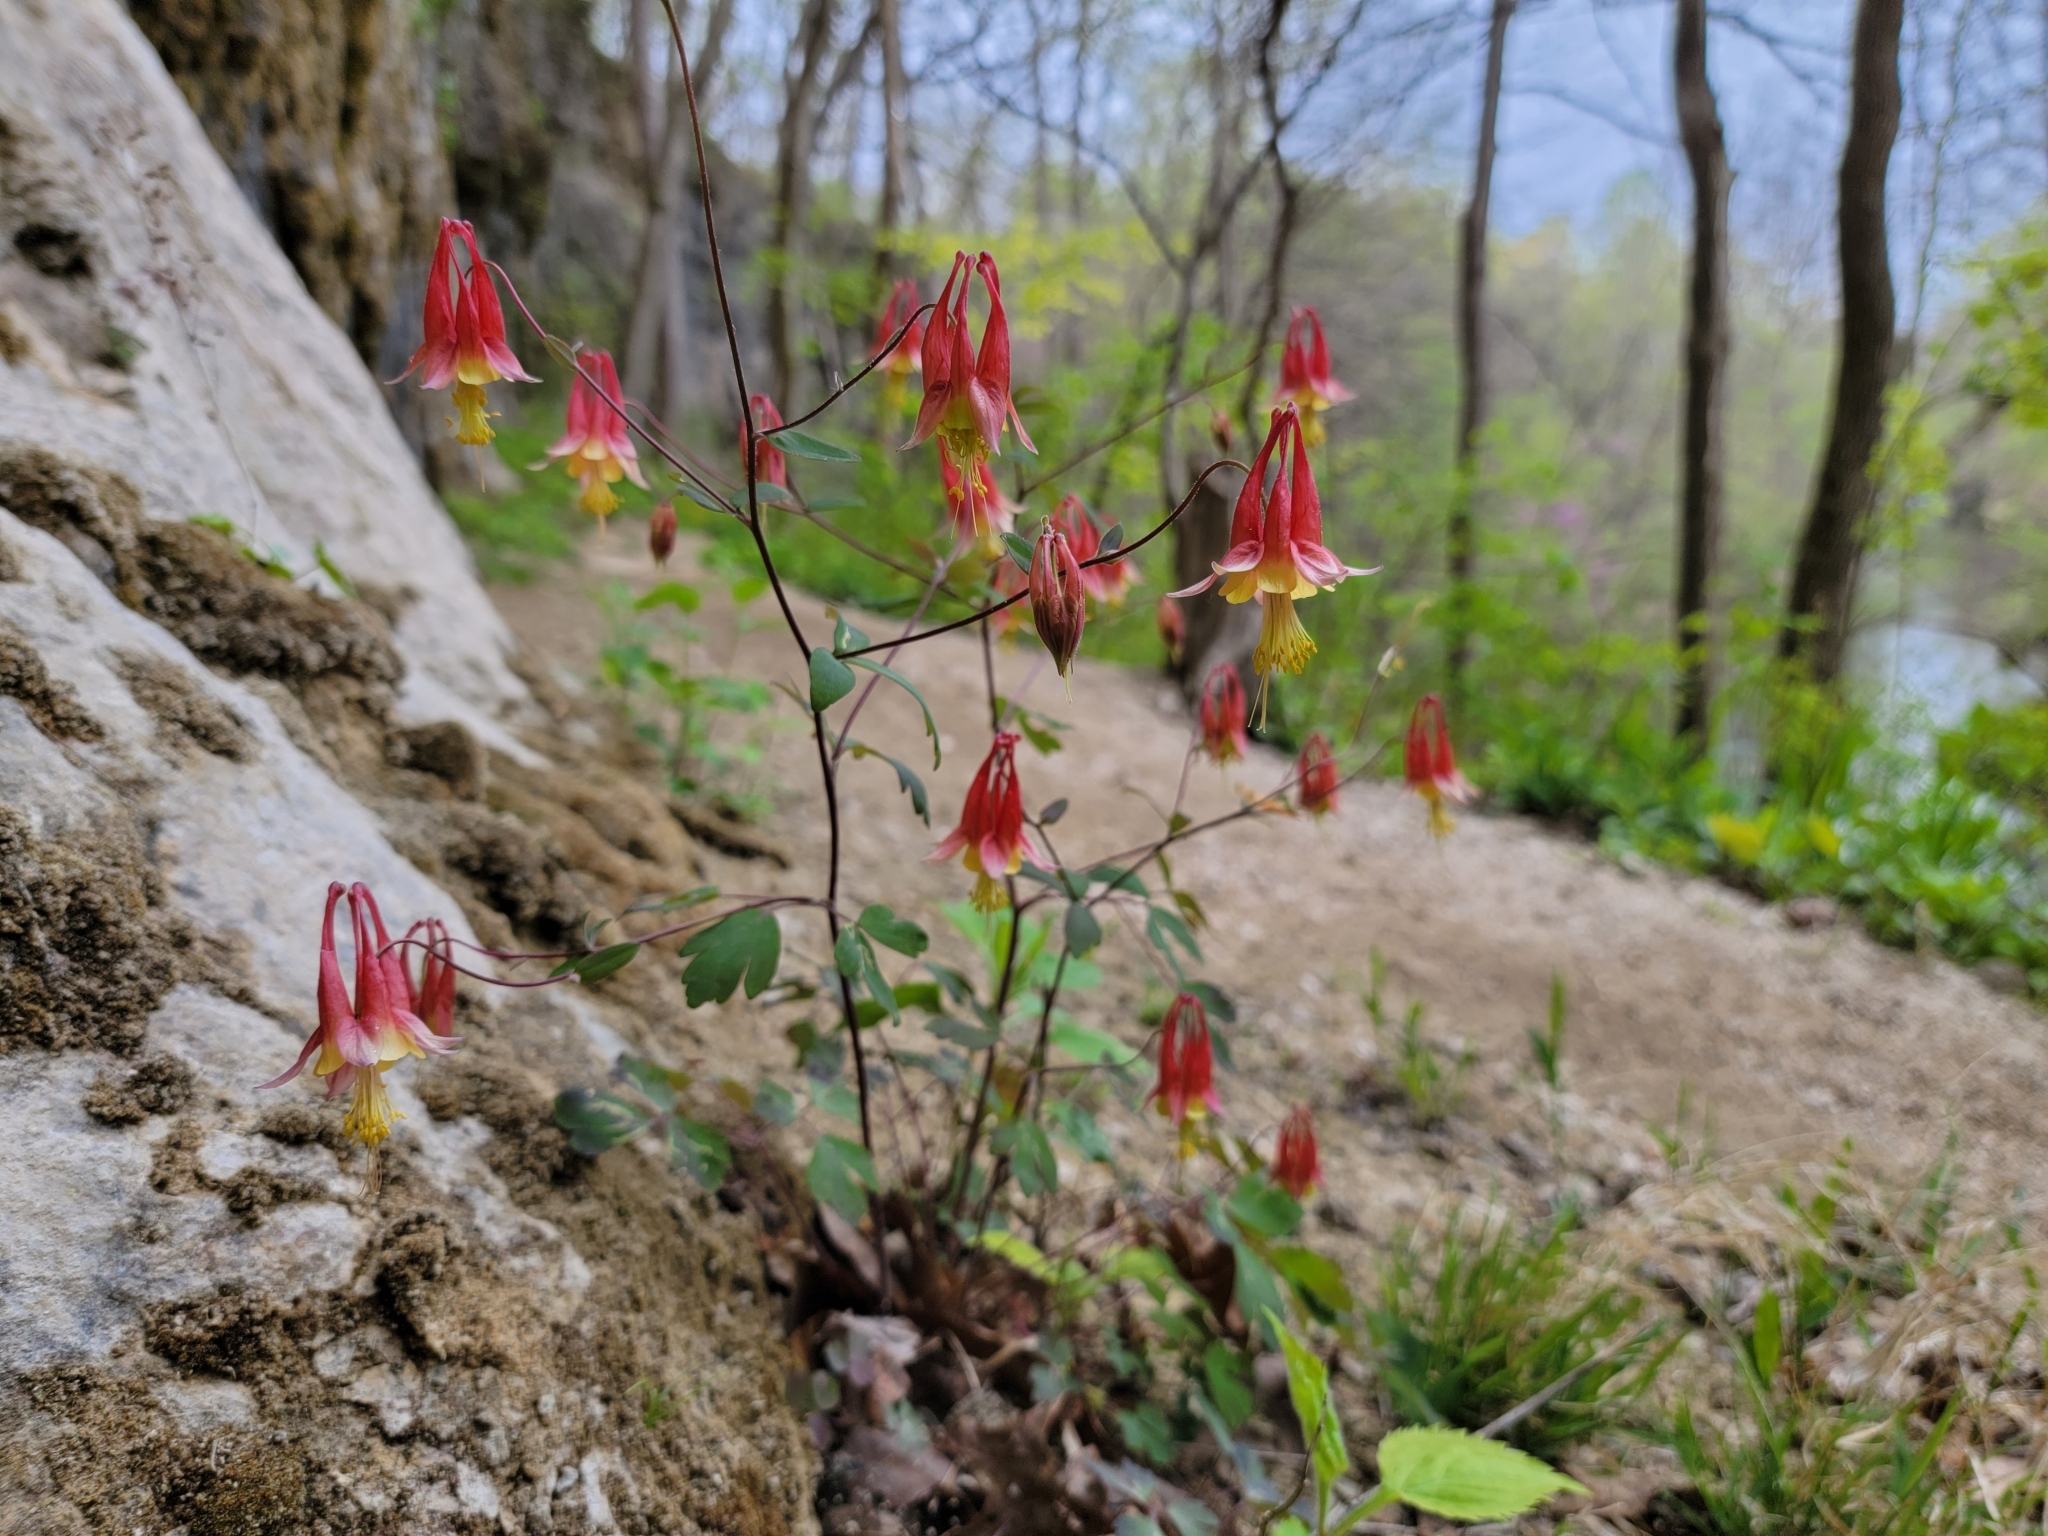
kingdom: Plantae
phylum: Tracheophyta
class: Magnoliopsida
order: Ranunculales
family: Ranunculaceae
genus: Aquilegia
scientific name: Aquilegia canadensis
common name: American columbine
